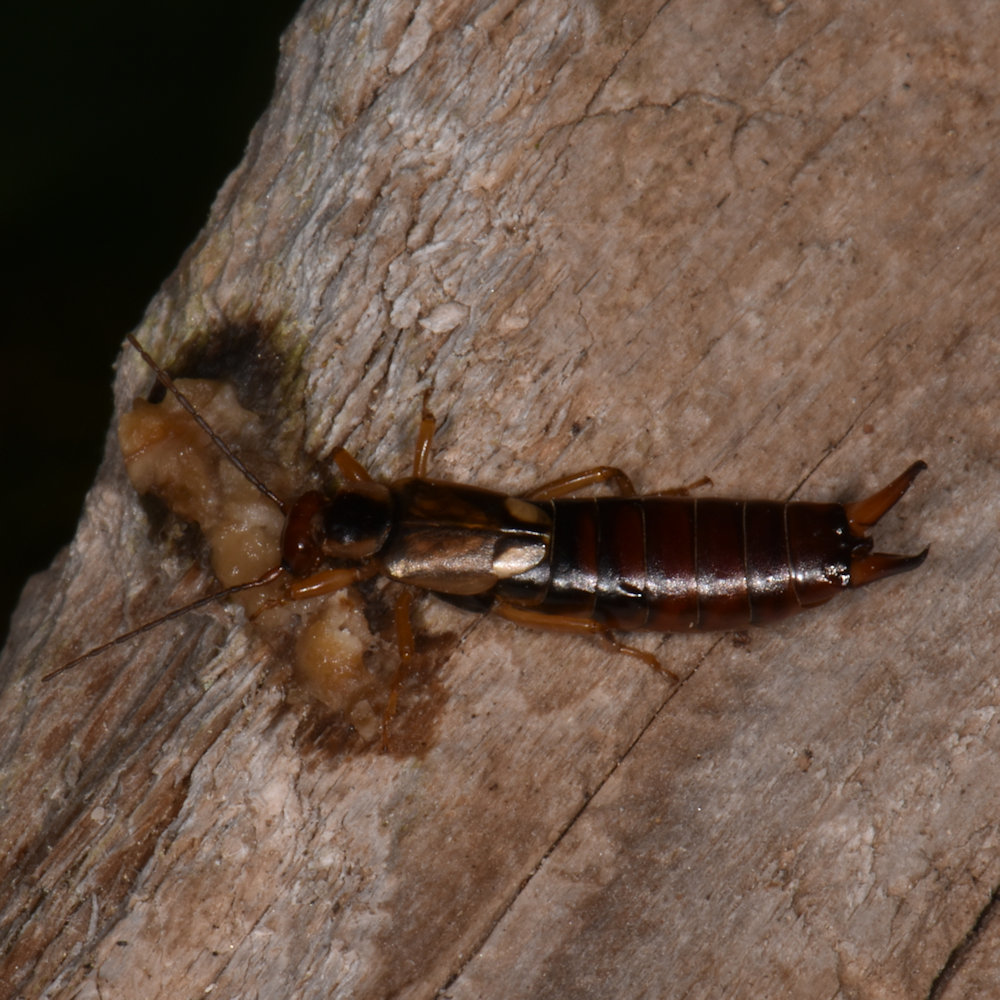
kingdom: Animalia
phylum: Arthropoda
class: Insecta
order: Dermaptera
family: Forficulidae
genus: Forficula
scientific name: Forficula
